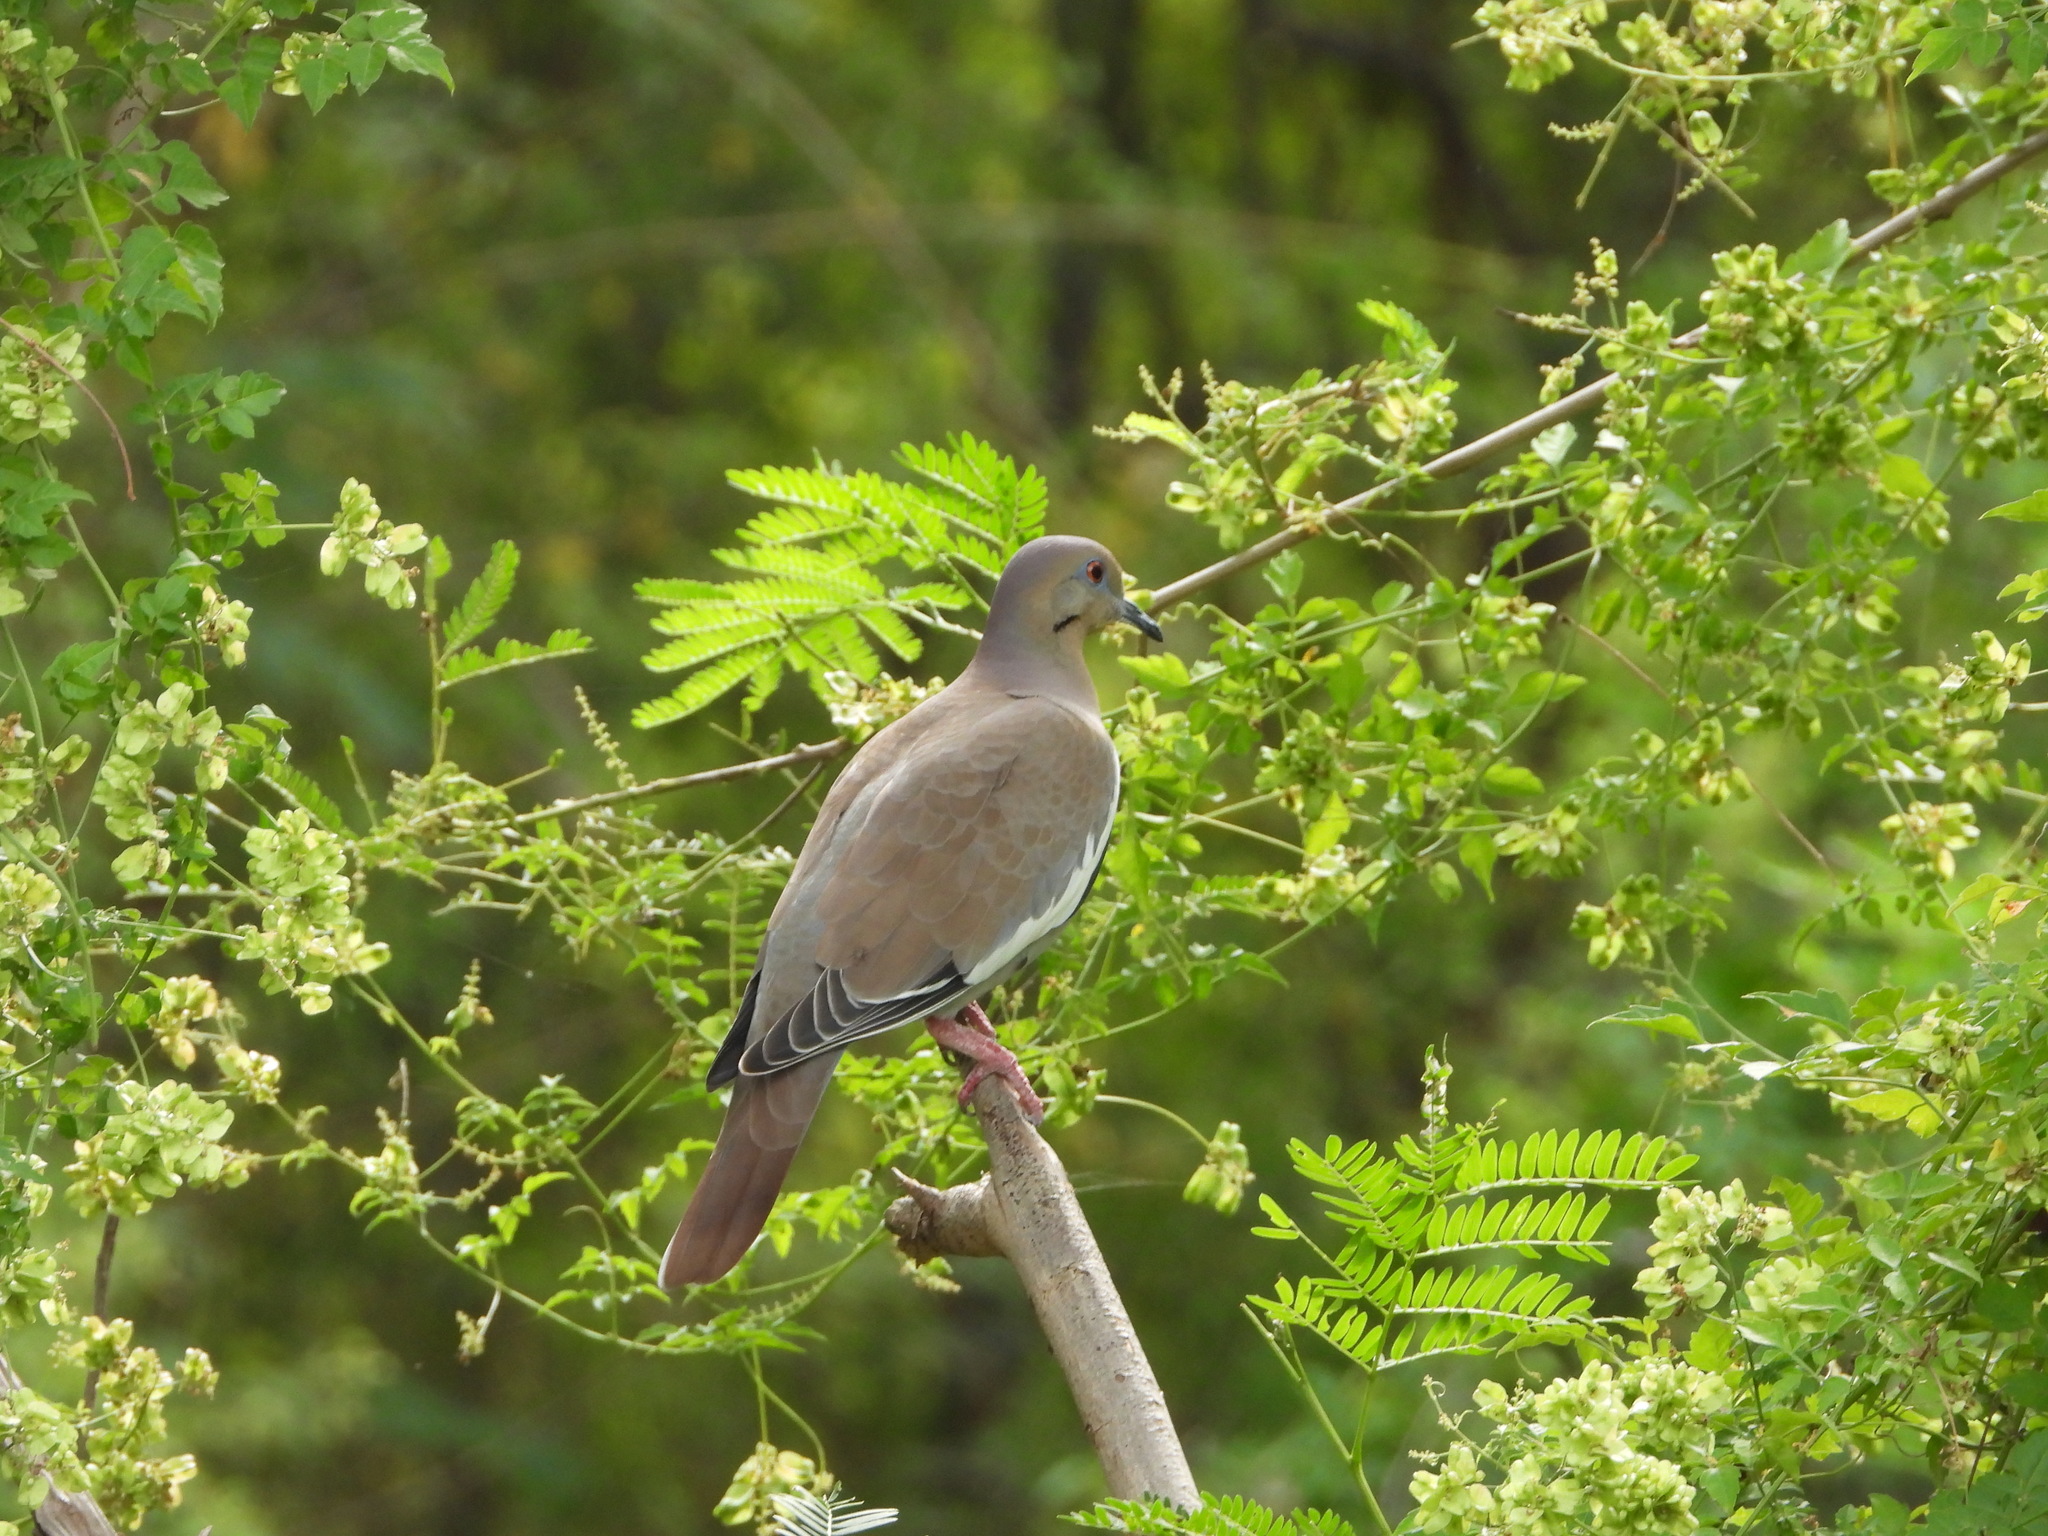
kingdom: Animalia
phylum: Chordata
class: Aves
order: Columbiformes
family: Columbidae
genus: Zenaida
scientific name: Zenaida asiatica
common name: White-winged dove
